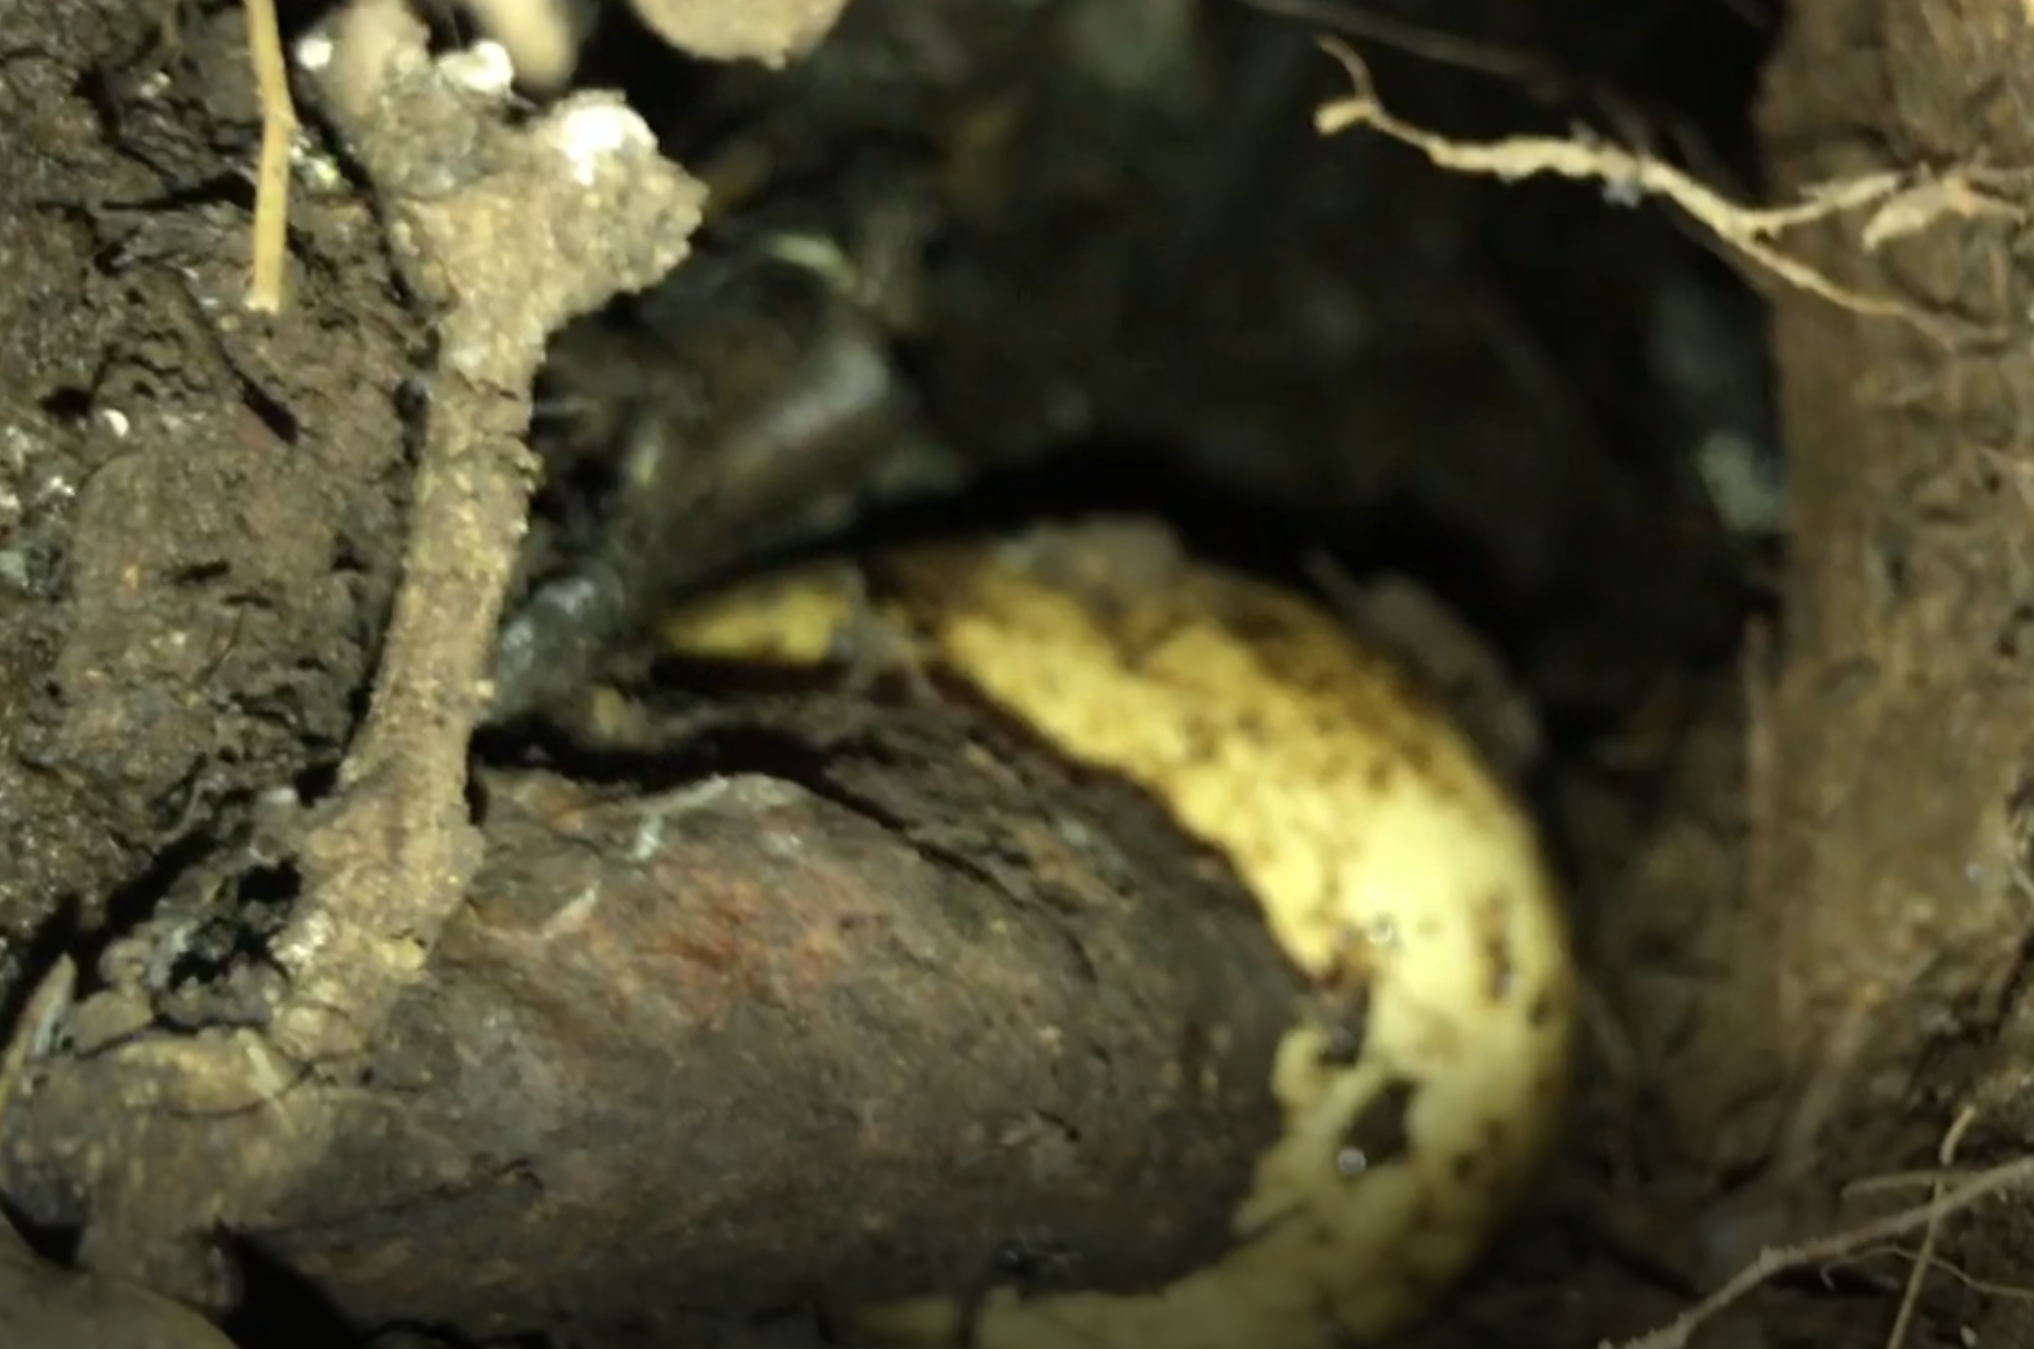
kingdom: Animalia
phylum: Chordata
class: Aves
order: Sphenisciformes
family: Spheniscidae
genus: Eudyptula
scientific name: Eudyptula minor
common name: Little penguin
